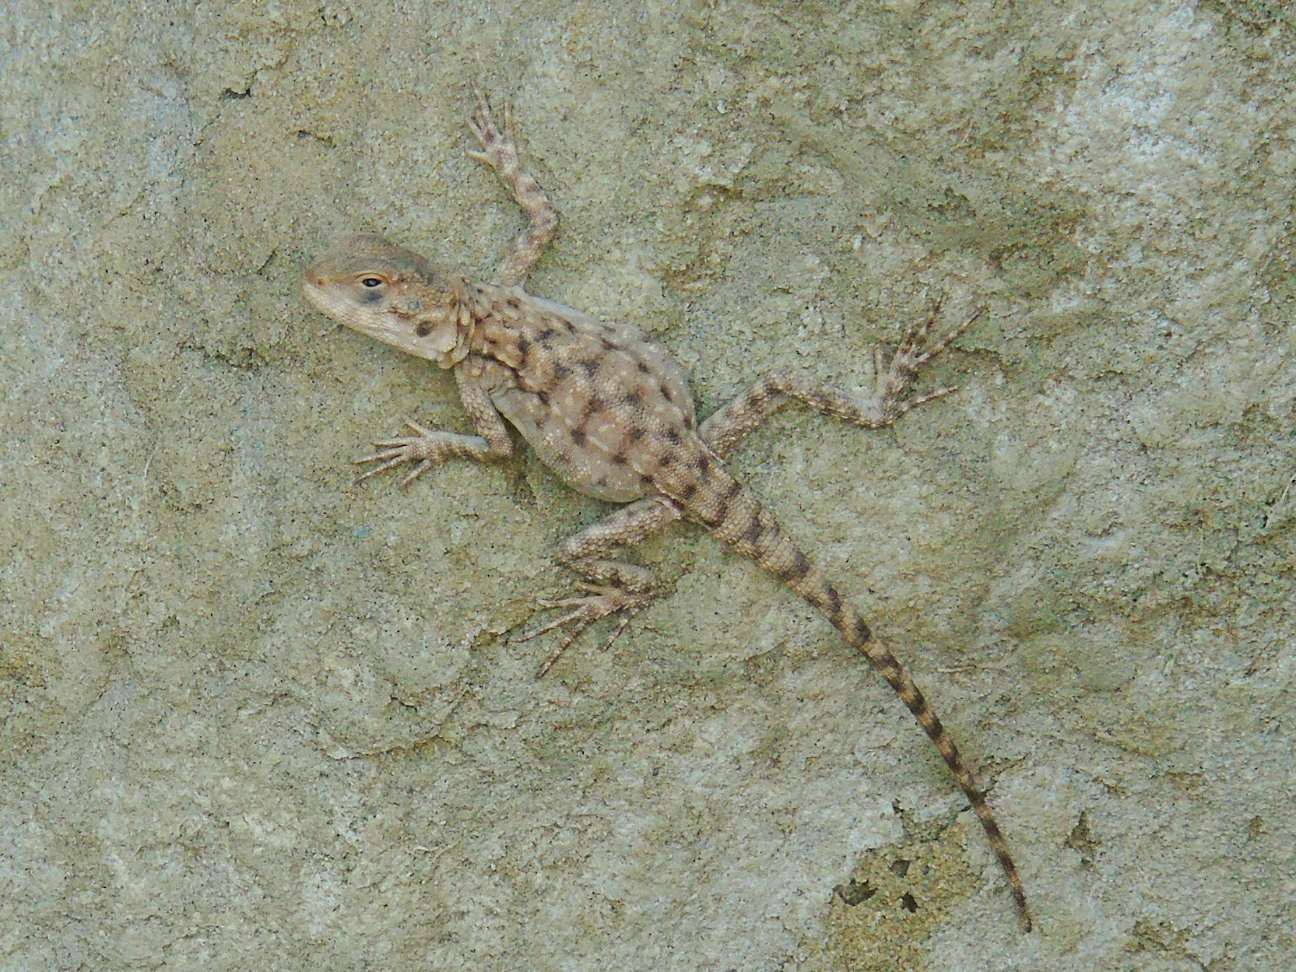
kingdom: Animalia
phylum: Chordata
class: Squamata
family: Agamidae
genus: Paralaudakia
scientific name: Paralaudakia caucasia
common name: Caucasian agama
